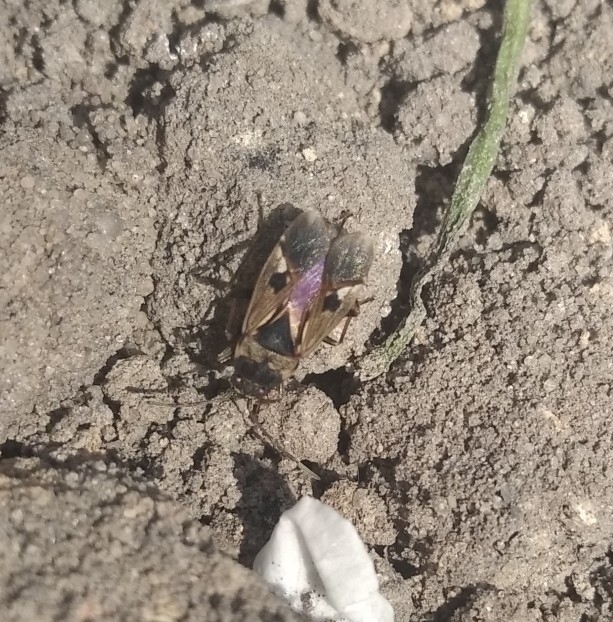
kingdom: Animalia
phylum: Arthropoda
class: Insecta
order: Hemiptera
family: Rhyparochromidae
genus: Rhyparochromus
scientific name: Rhyparochromus vulgaris
